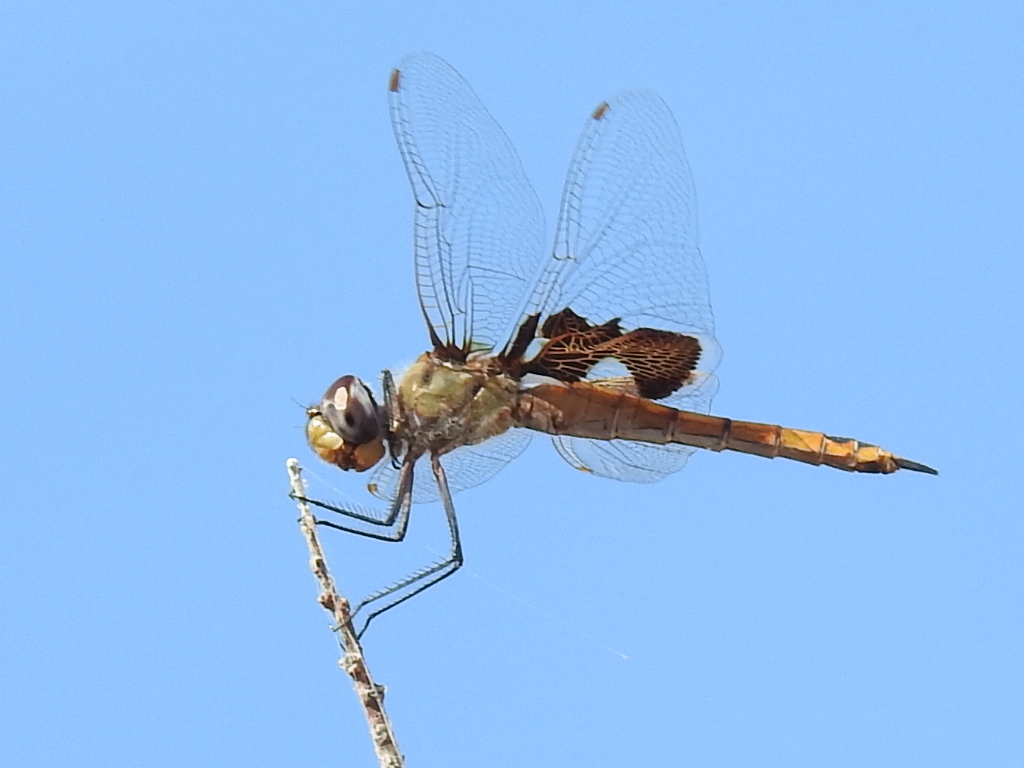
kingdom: Animalia
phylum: Arthropoda
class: Insecta
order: Odonata
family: Libellulidae
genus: Tramea
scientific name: Tramea onusta
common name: Red saddlebags
